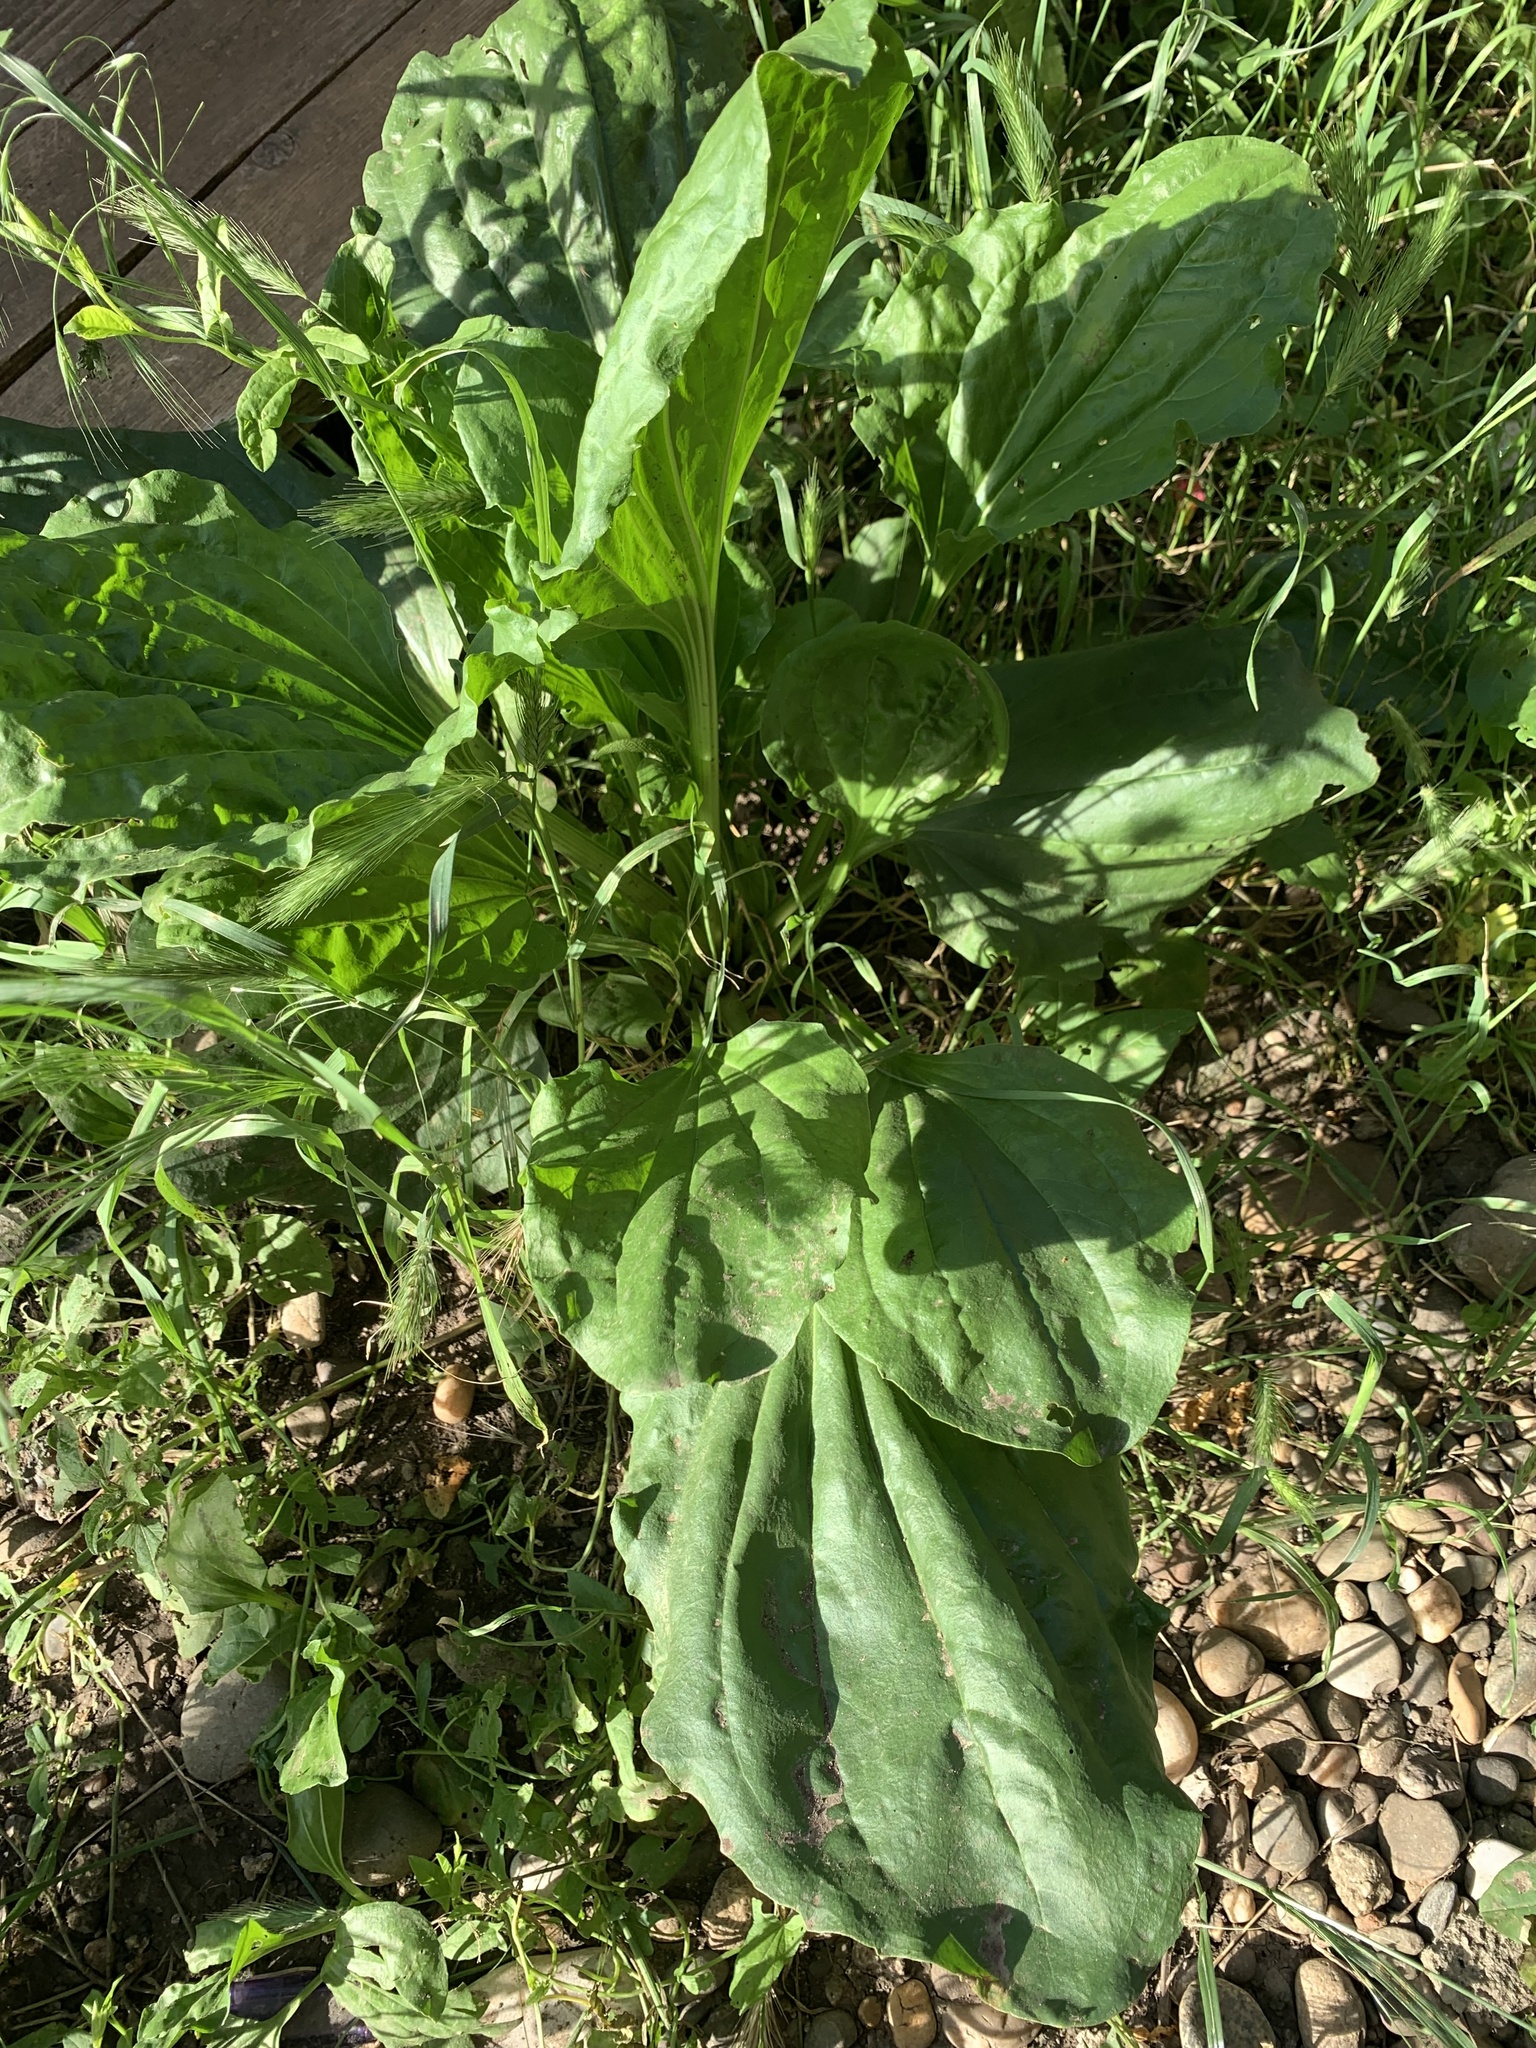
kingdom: Plantae
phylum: Tracheophyta
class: Magnoliopsida
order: Lamiales
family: Plantaginaceae
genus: Plantago
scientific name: Plantago major
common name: Common plantain
